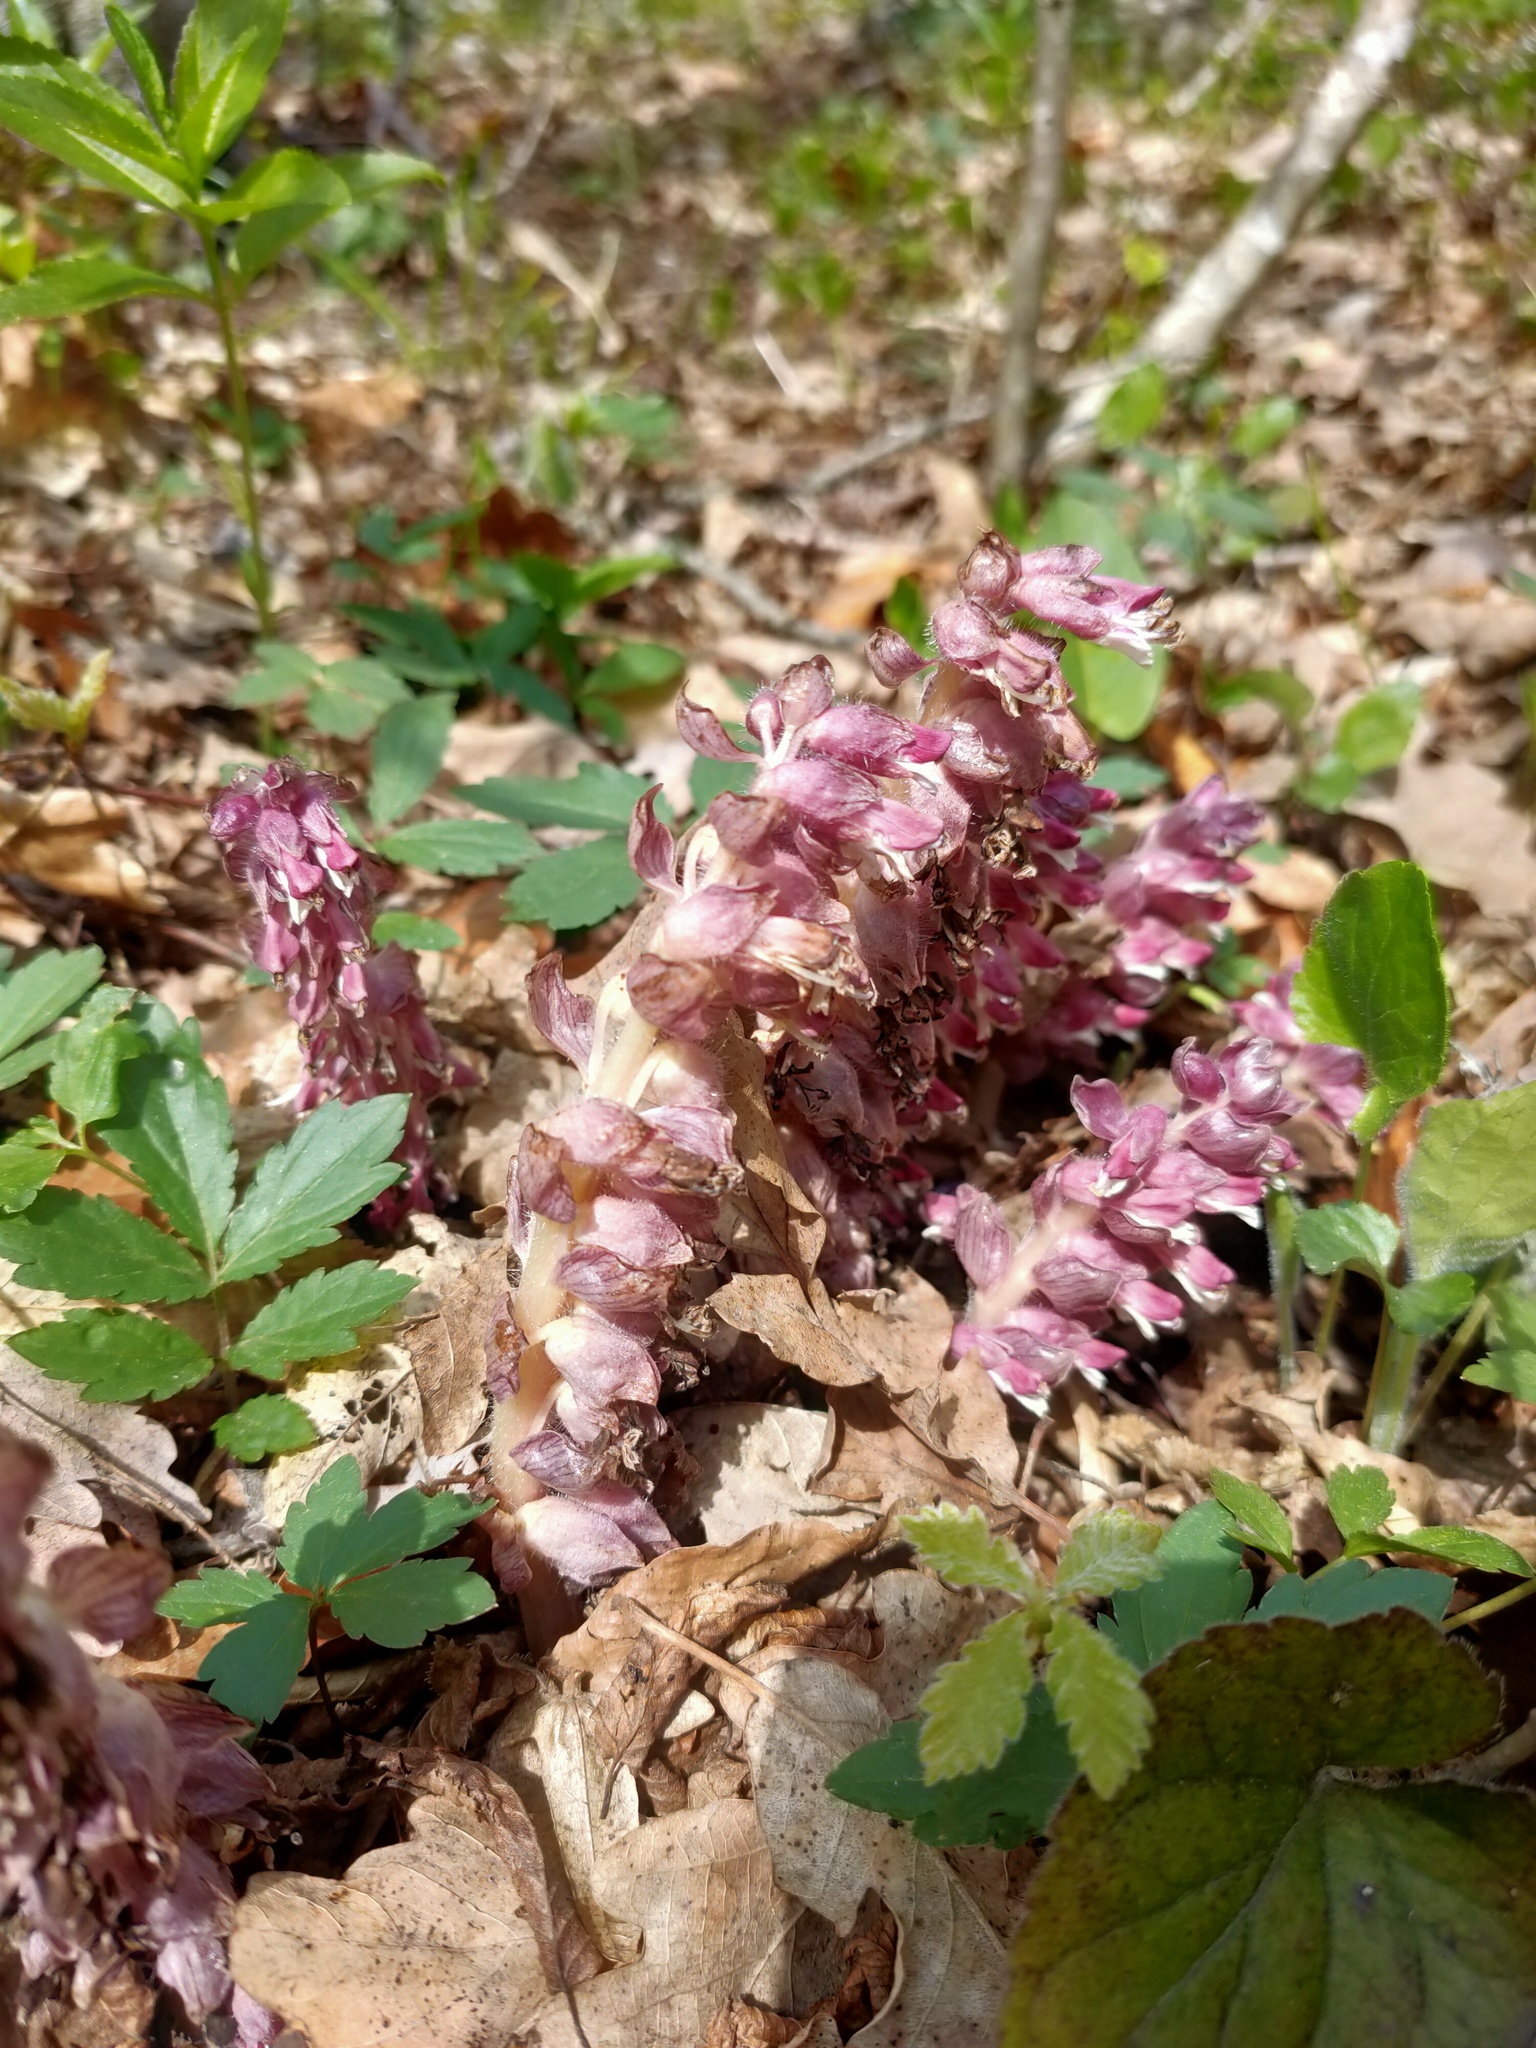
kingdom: Plantae
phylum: Tracheophyta
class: Magnoliopsida
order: Lamiales
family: Orobanchaceae
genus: Lathraea
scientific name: Lathraea squamaria
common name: Toothwort
